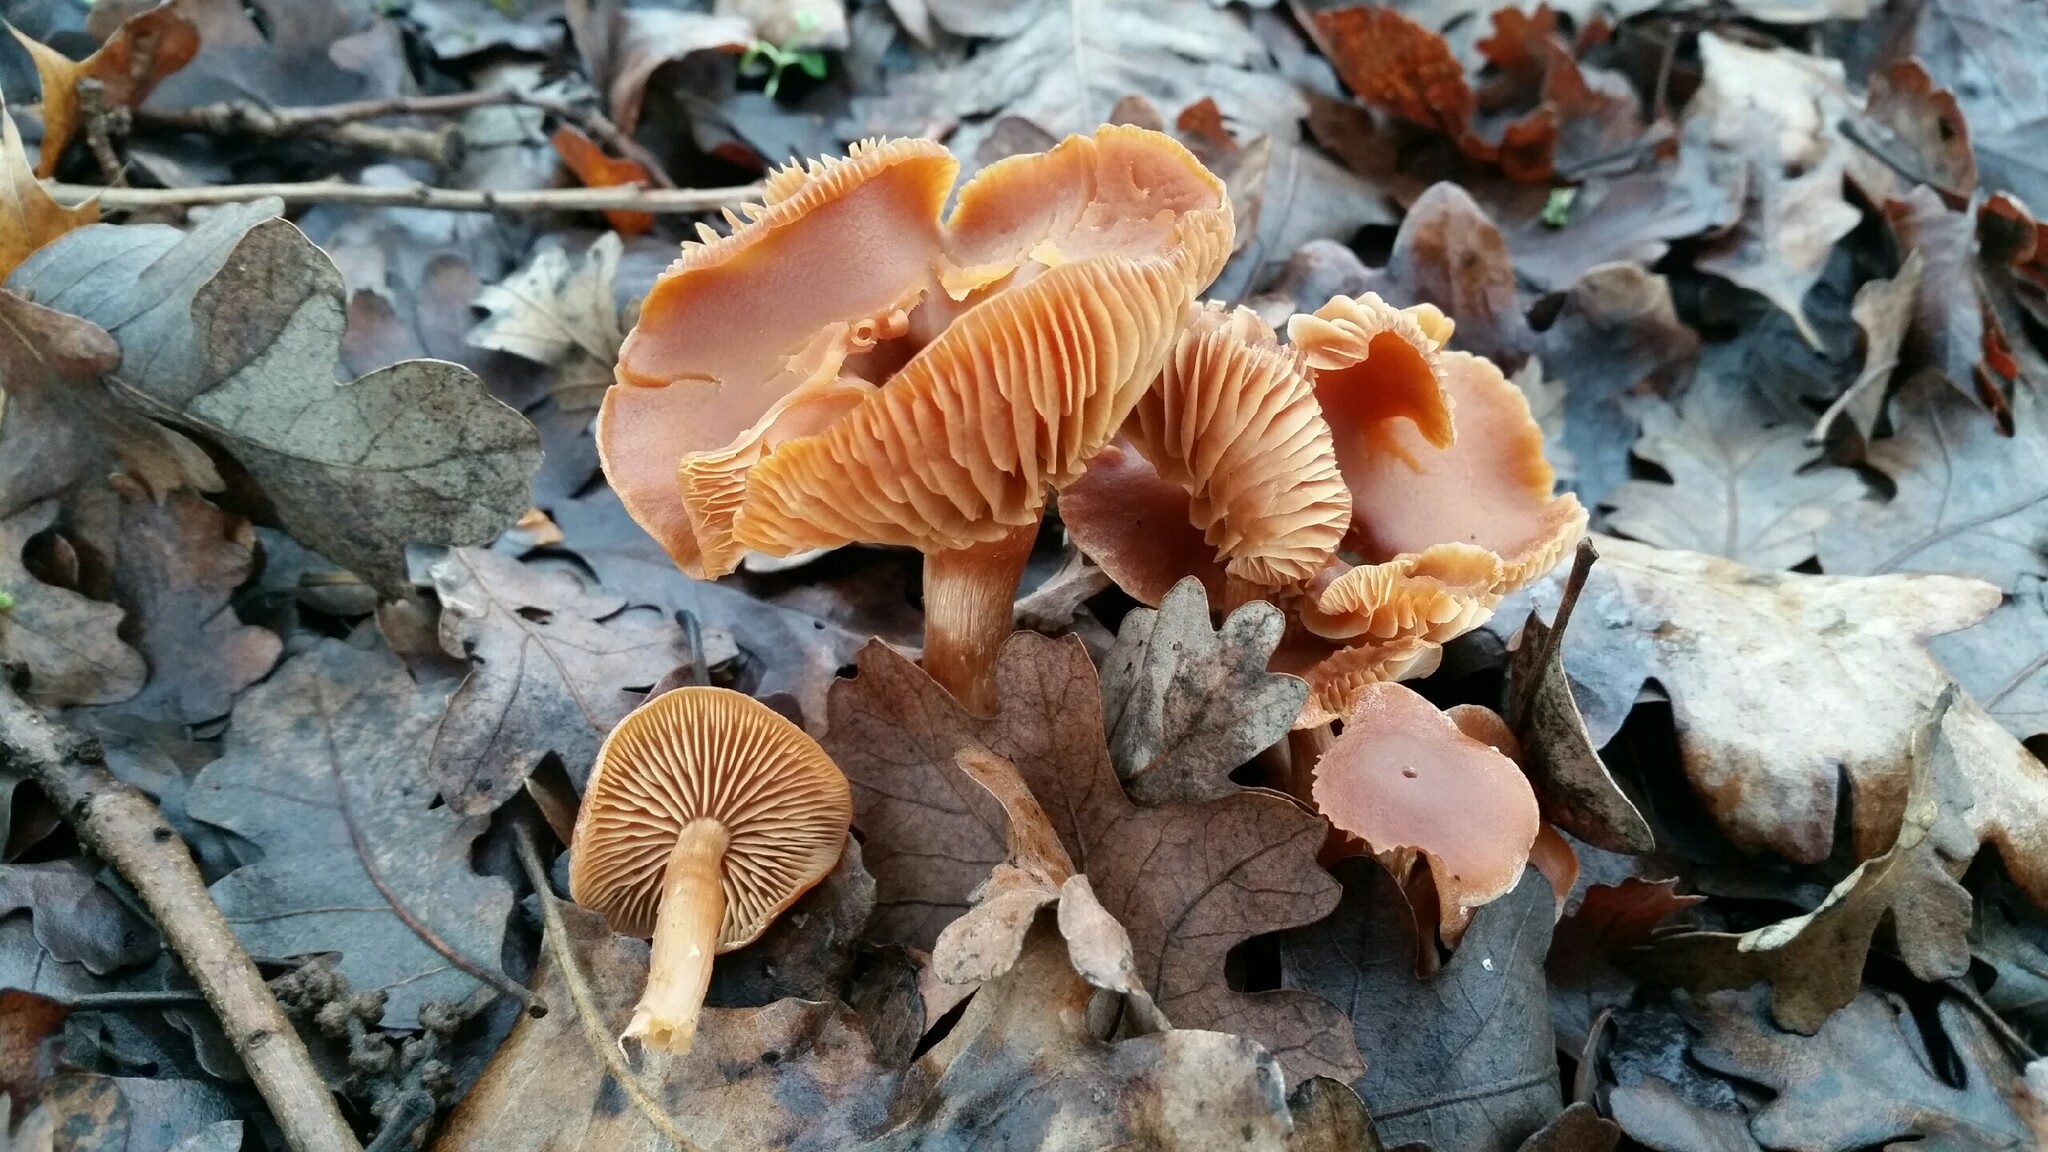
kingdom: Fungi
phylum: Basidiomycota
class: Agaricomycetes
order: Agaricales
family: Tubariaceae
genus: Tubaria
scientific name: Tubaria furfuracea
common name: Scurfy twiglet
